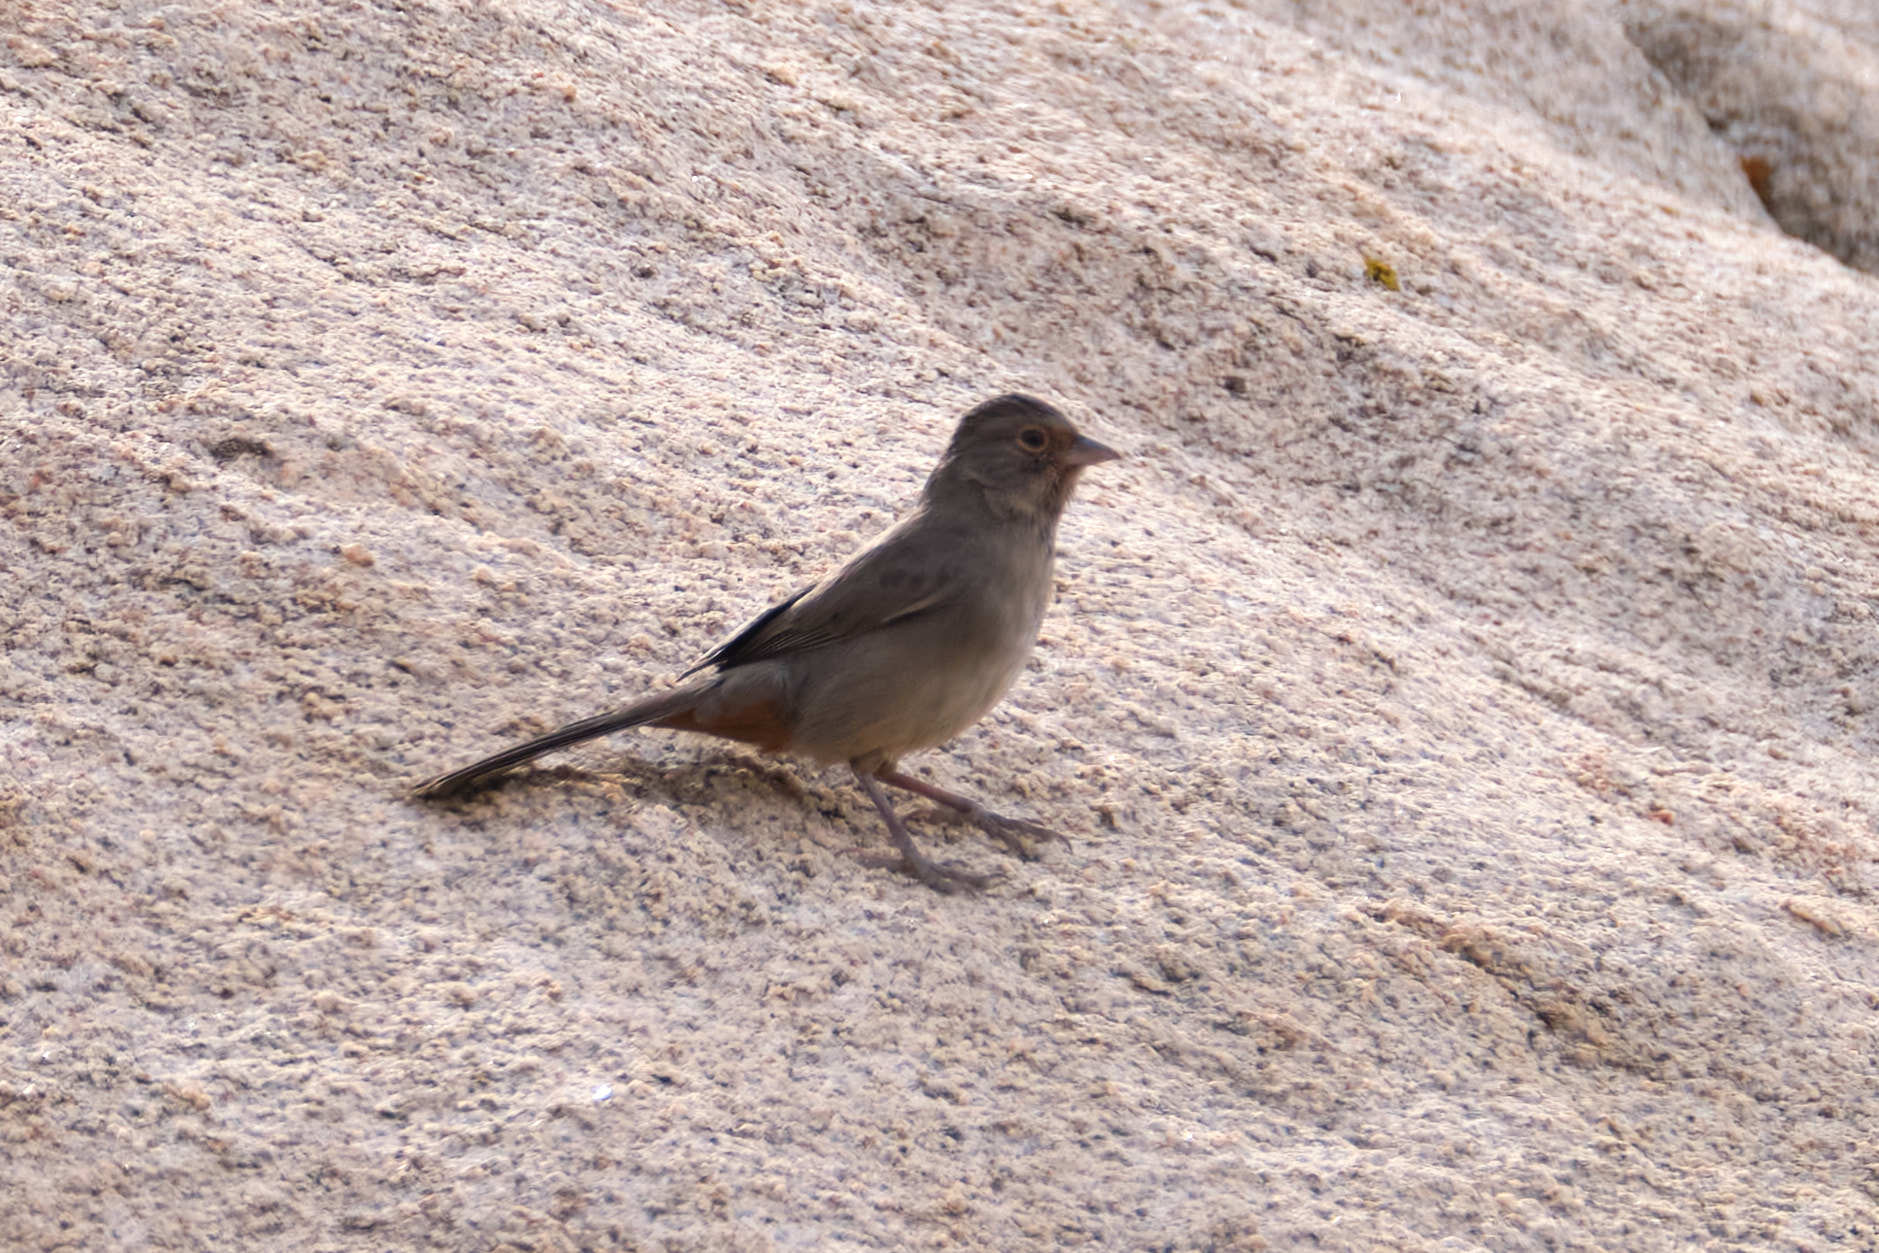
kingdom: Animalia
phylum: Chordata
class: Aves
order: Passeriformes
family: Passerellidae
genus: Melozone
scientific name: Melozone crissalis
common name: California towhee
